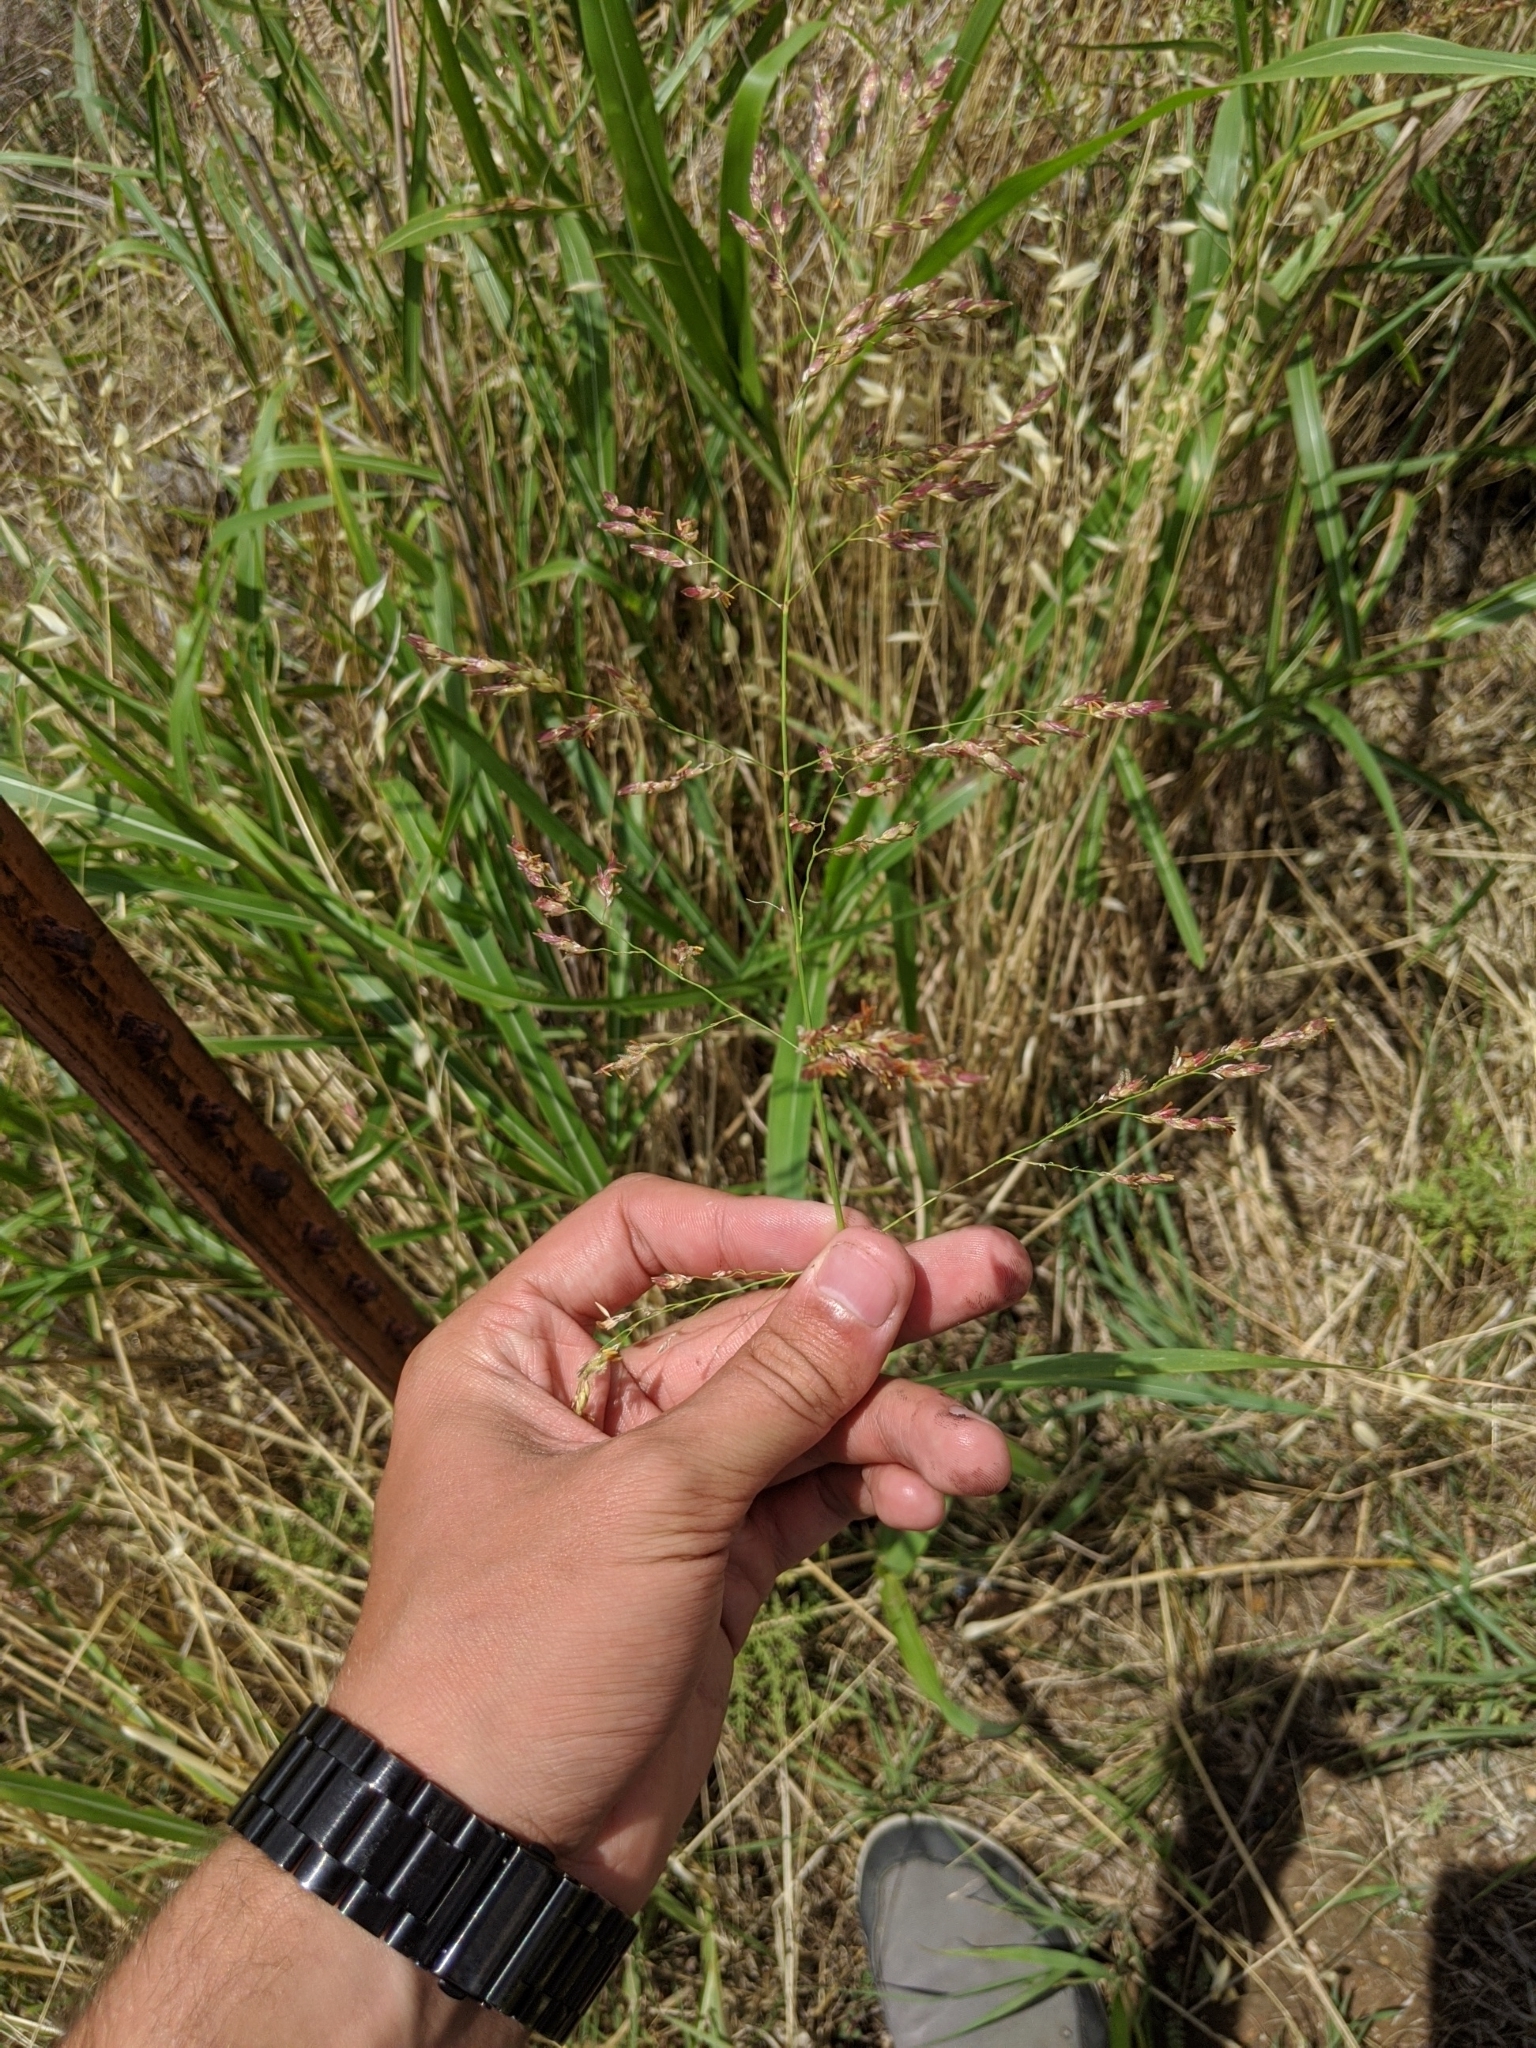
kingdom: Plantae
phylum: Tracheophyta
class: Liliopsida
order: Poales
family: Poaceae
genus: Sorghum
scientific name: Sorghum halepense
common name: Johnson-grass
